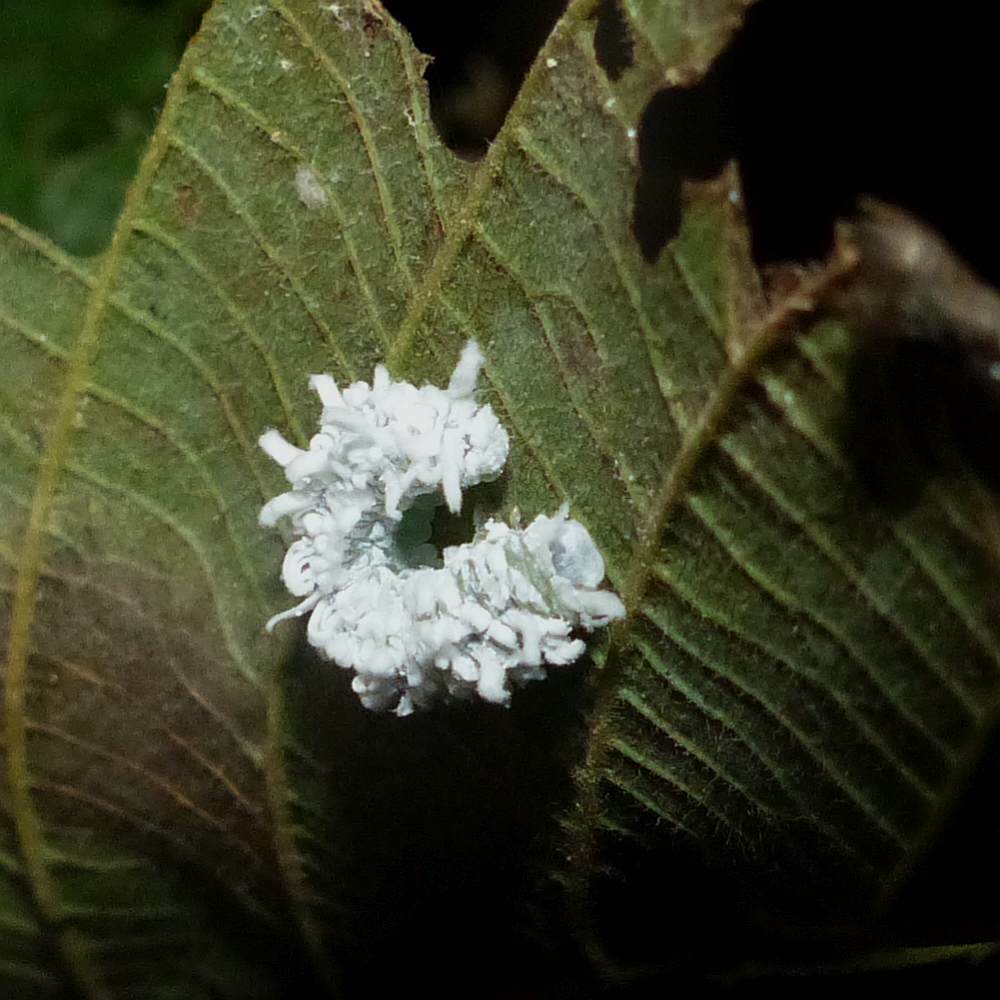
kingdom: Animalia
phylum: Arthropoda
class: Insecta
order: Hymenoptera
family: Tenthredinidae
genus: Eriocampa
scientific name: Eriocampa ovata
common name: Alder wooly sawfly
